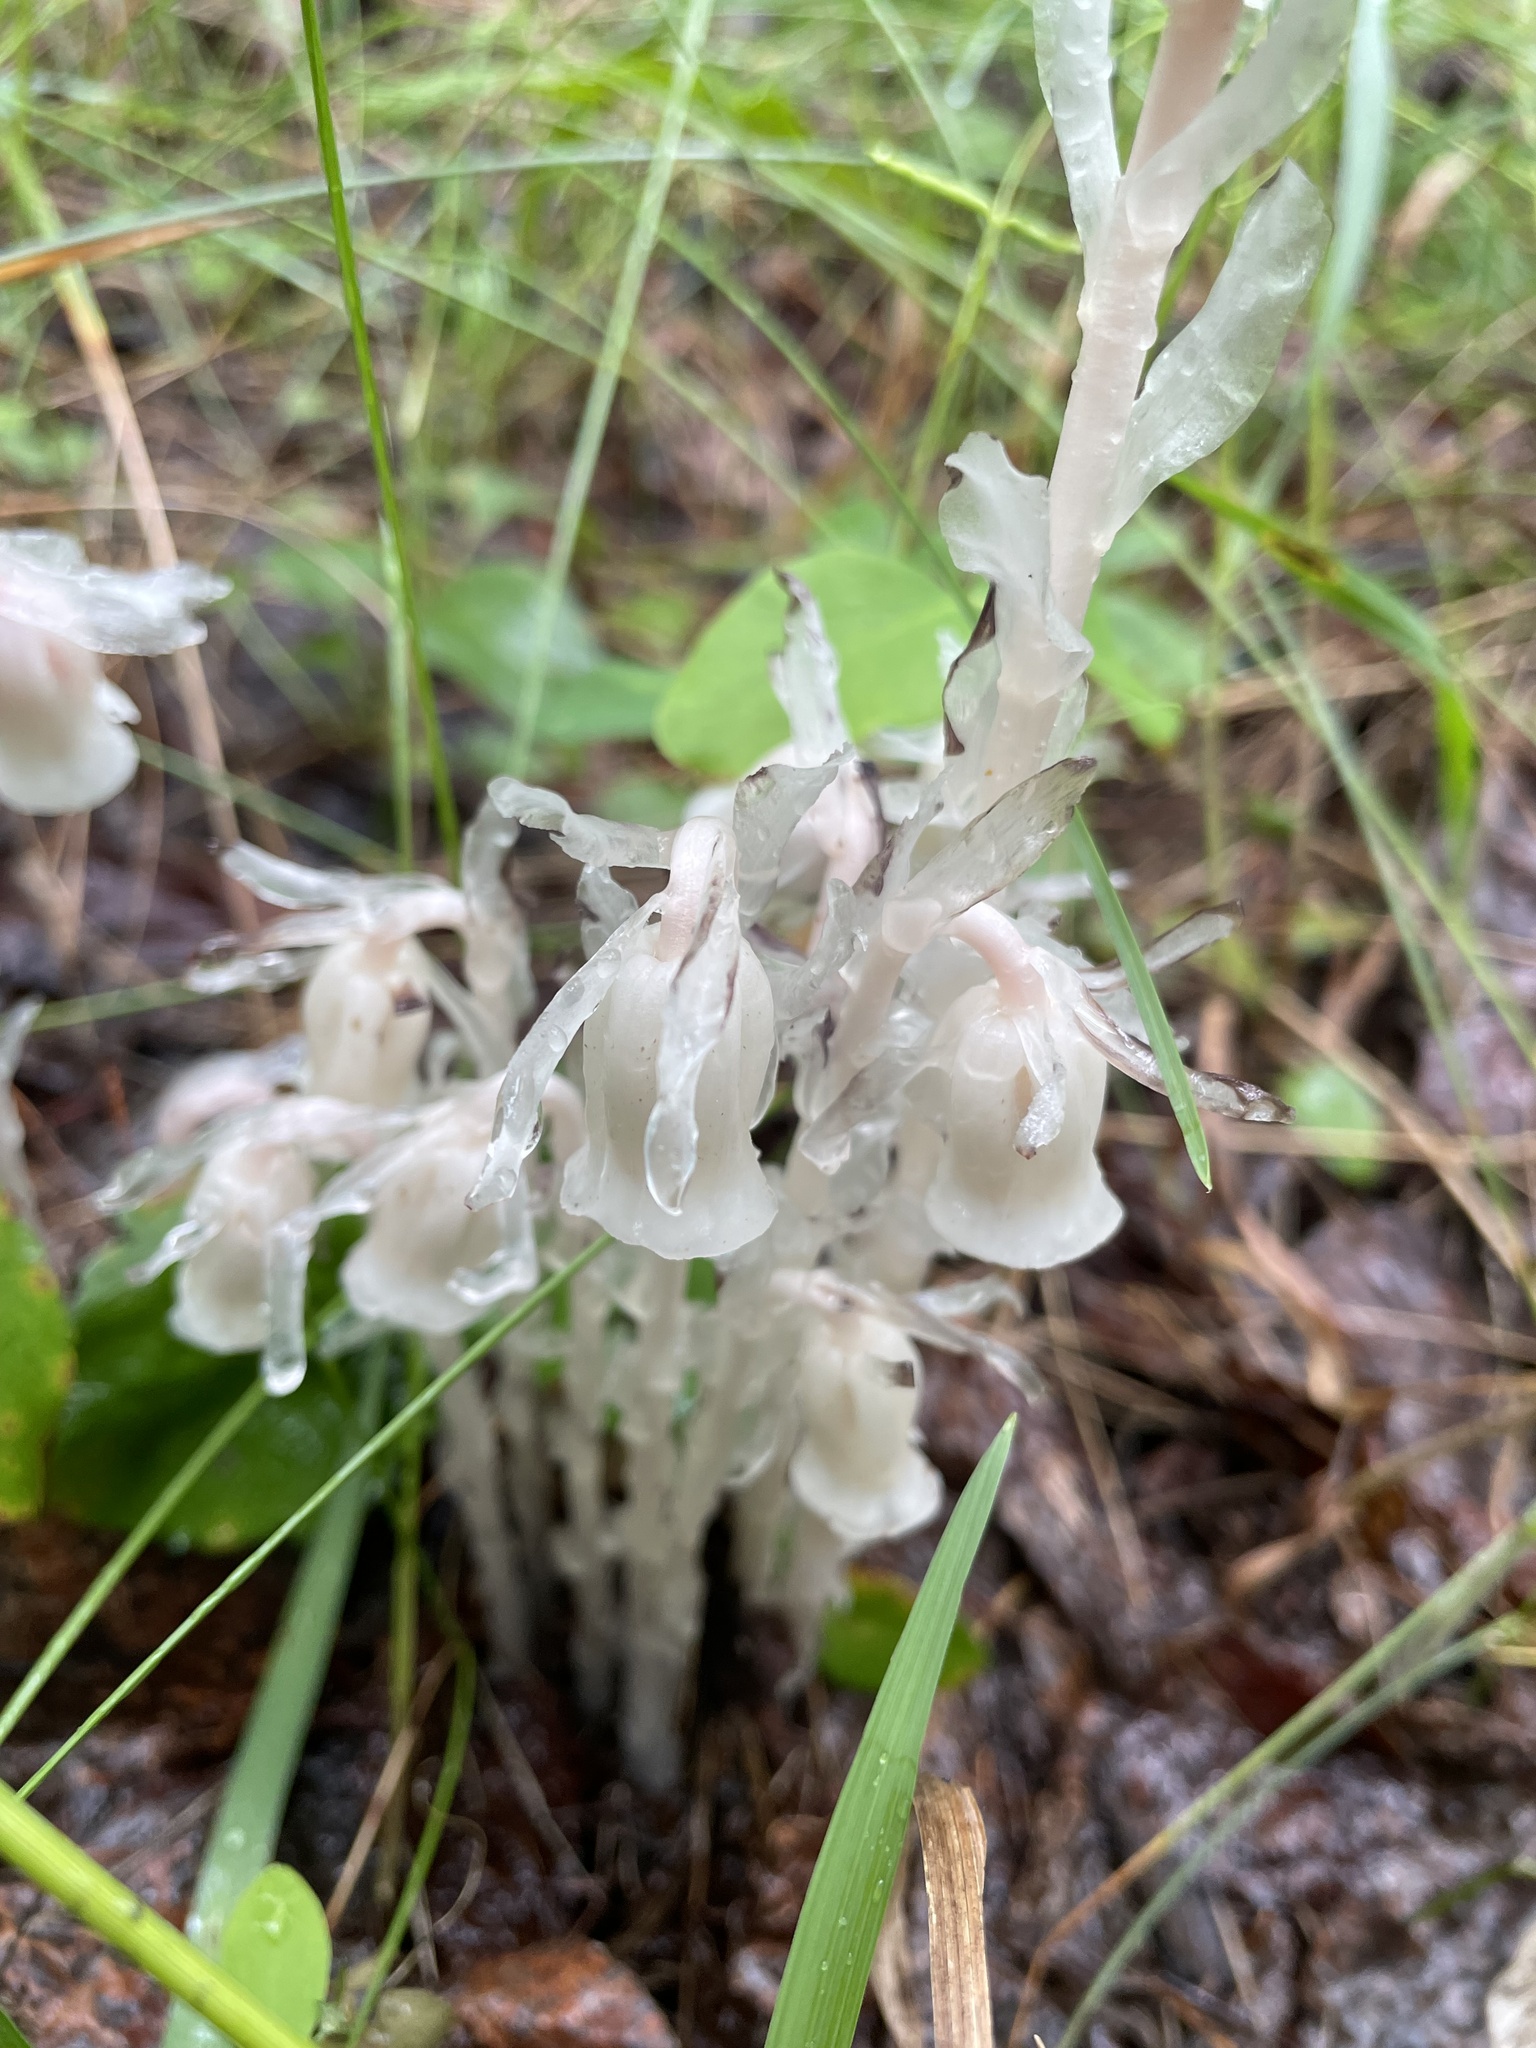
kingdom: Plantae
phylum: Tracheophyta
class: Magnoliopsida
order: Ericales
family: Ericaceae
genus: Monotropa
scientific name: Monotropa uniflora
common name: Convulsion root
